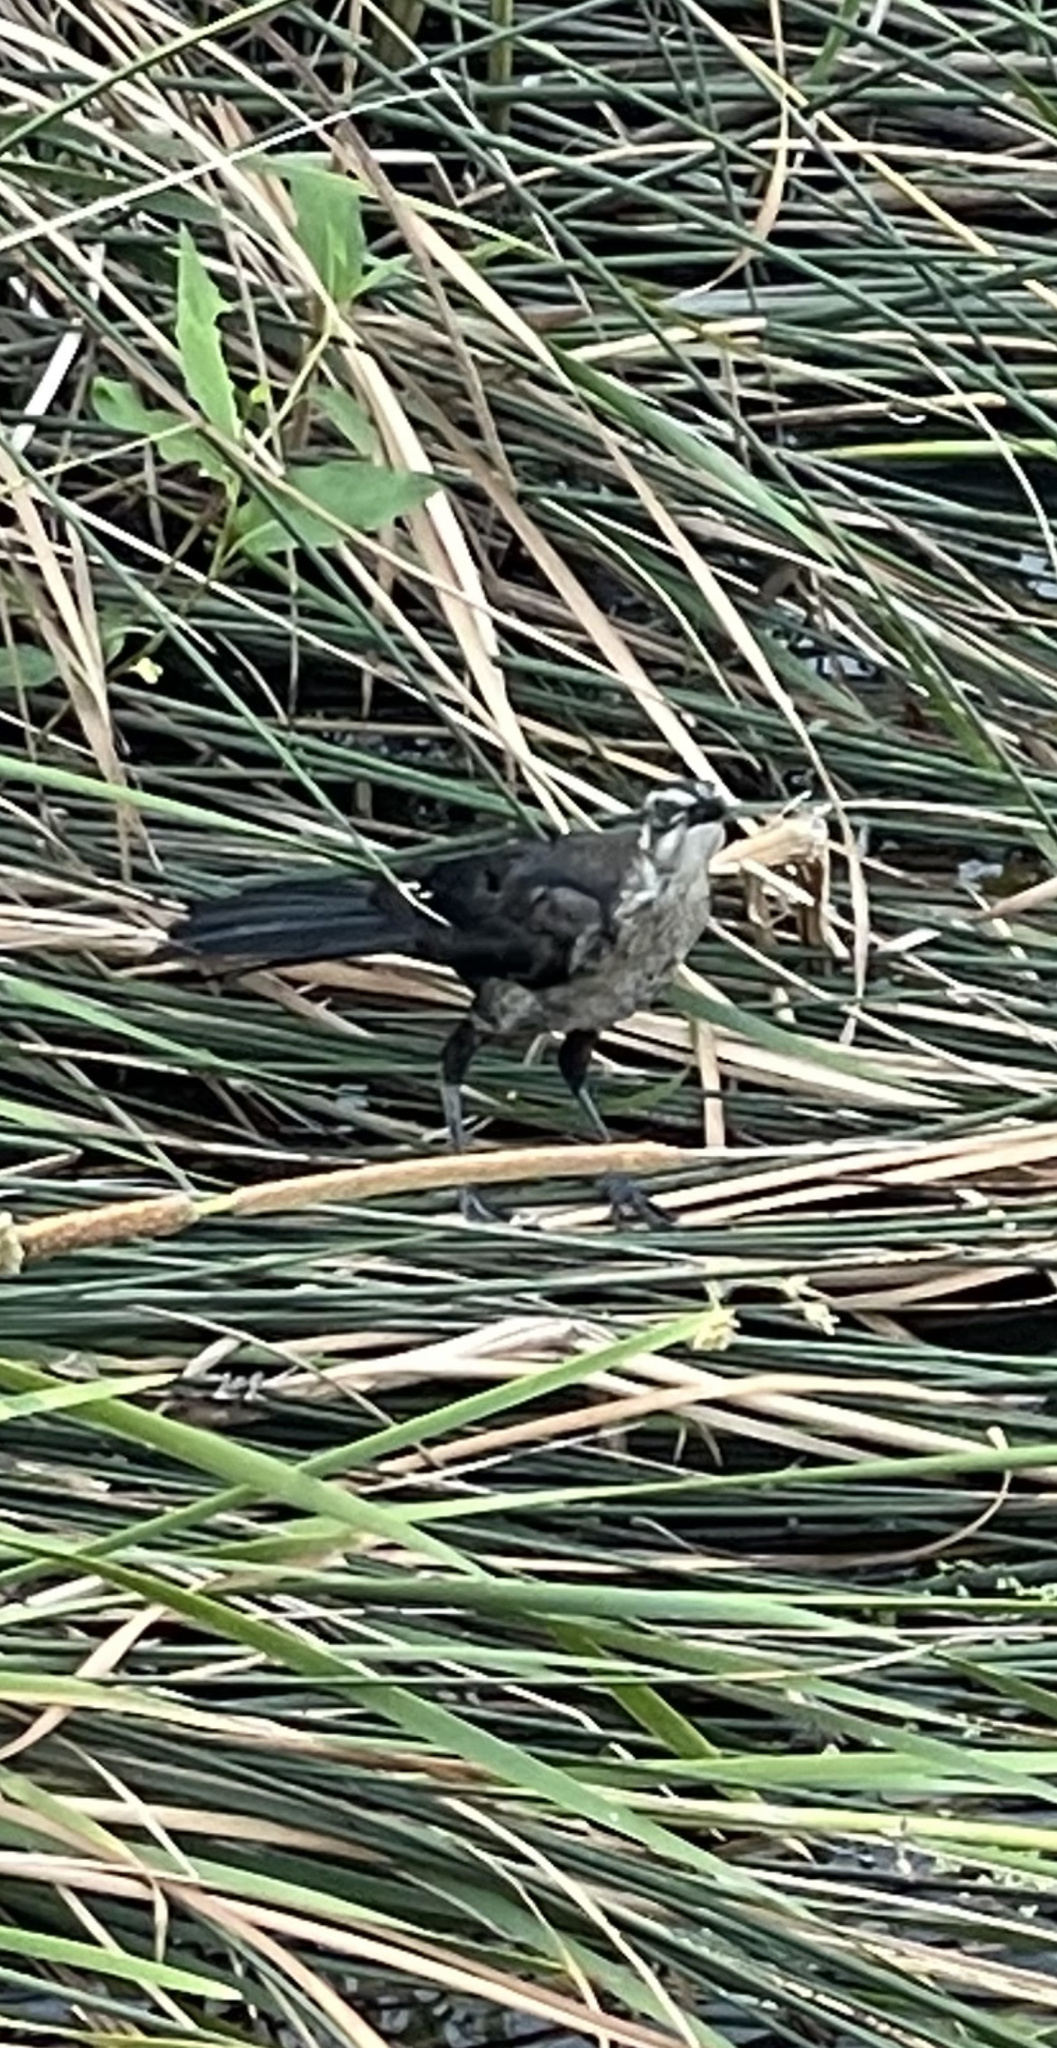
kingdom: Animalia
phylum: Chordata
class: Aves
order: Passeriformes
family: Icteridae
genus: Quiscalus
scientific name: Quiscalus mexicanus
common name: Great-tailed grackle
